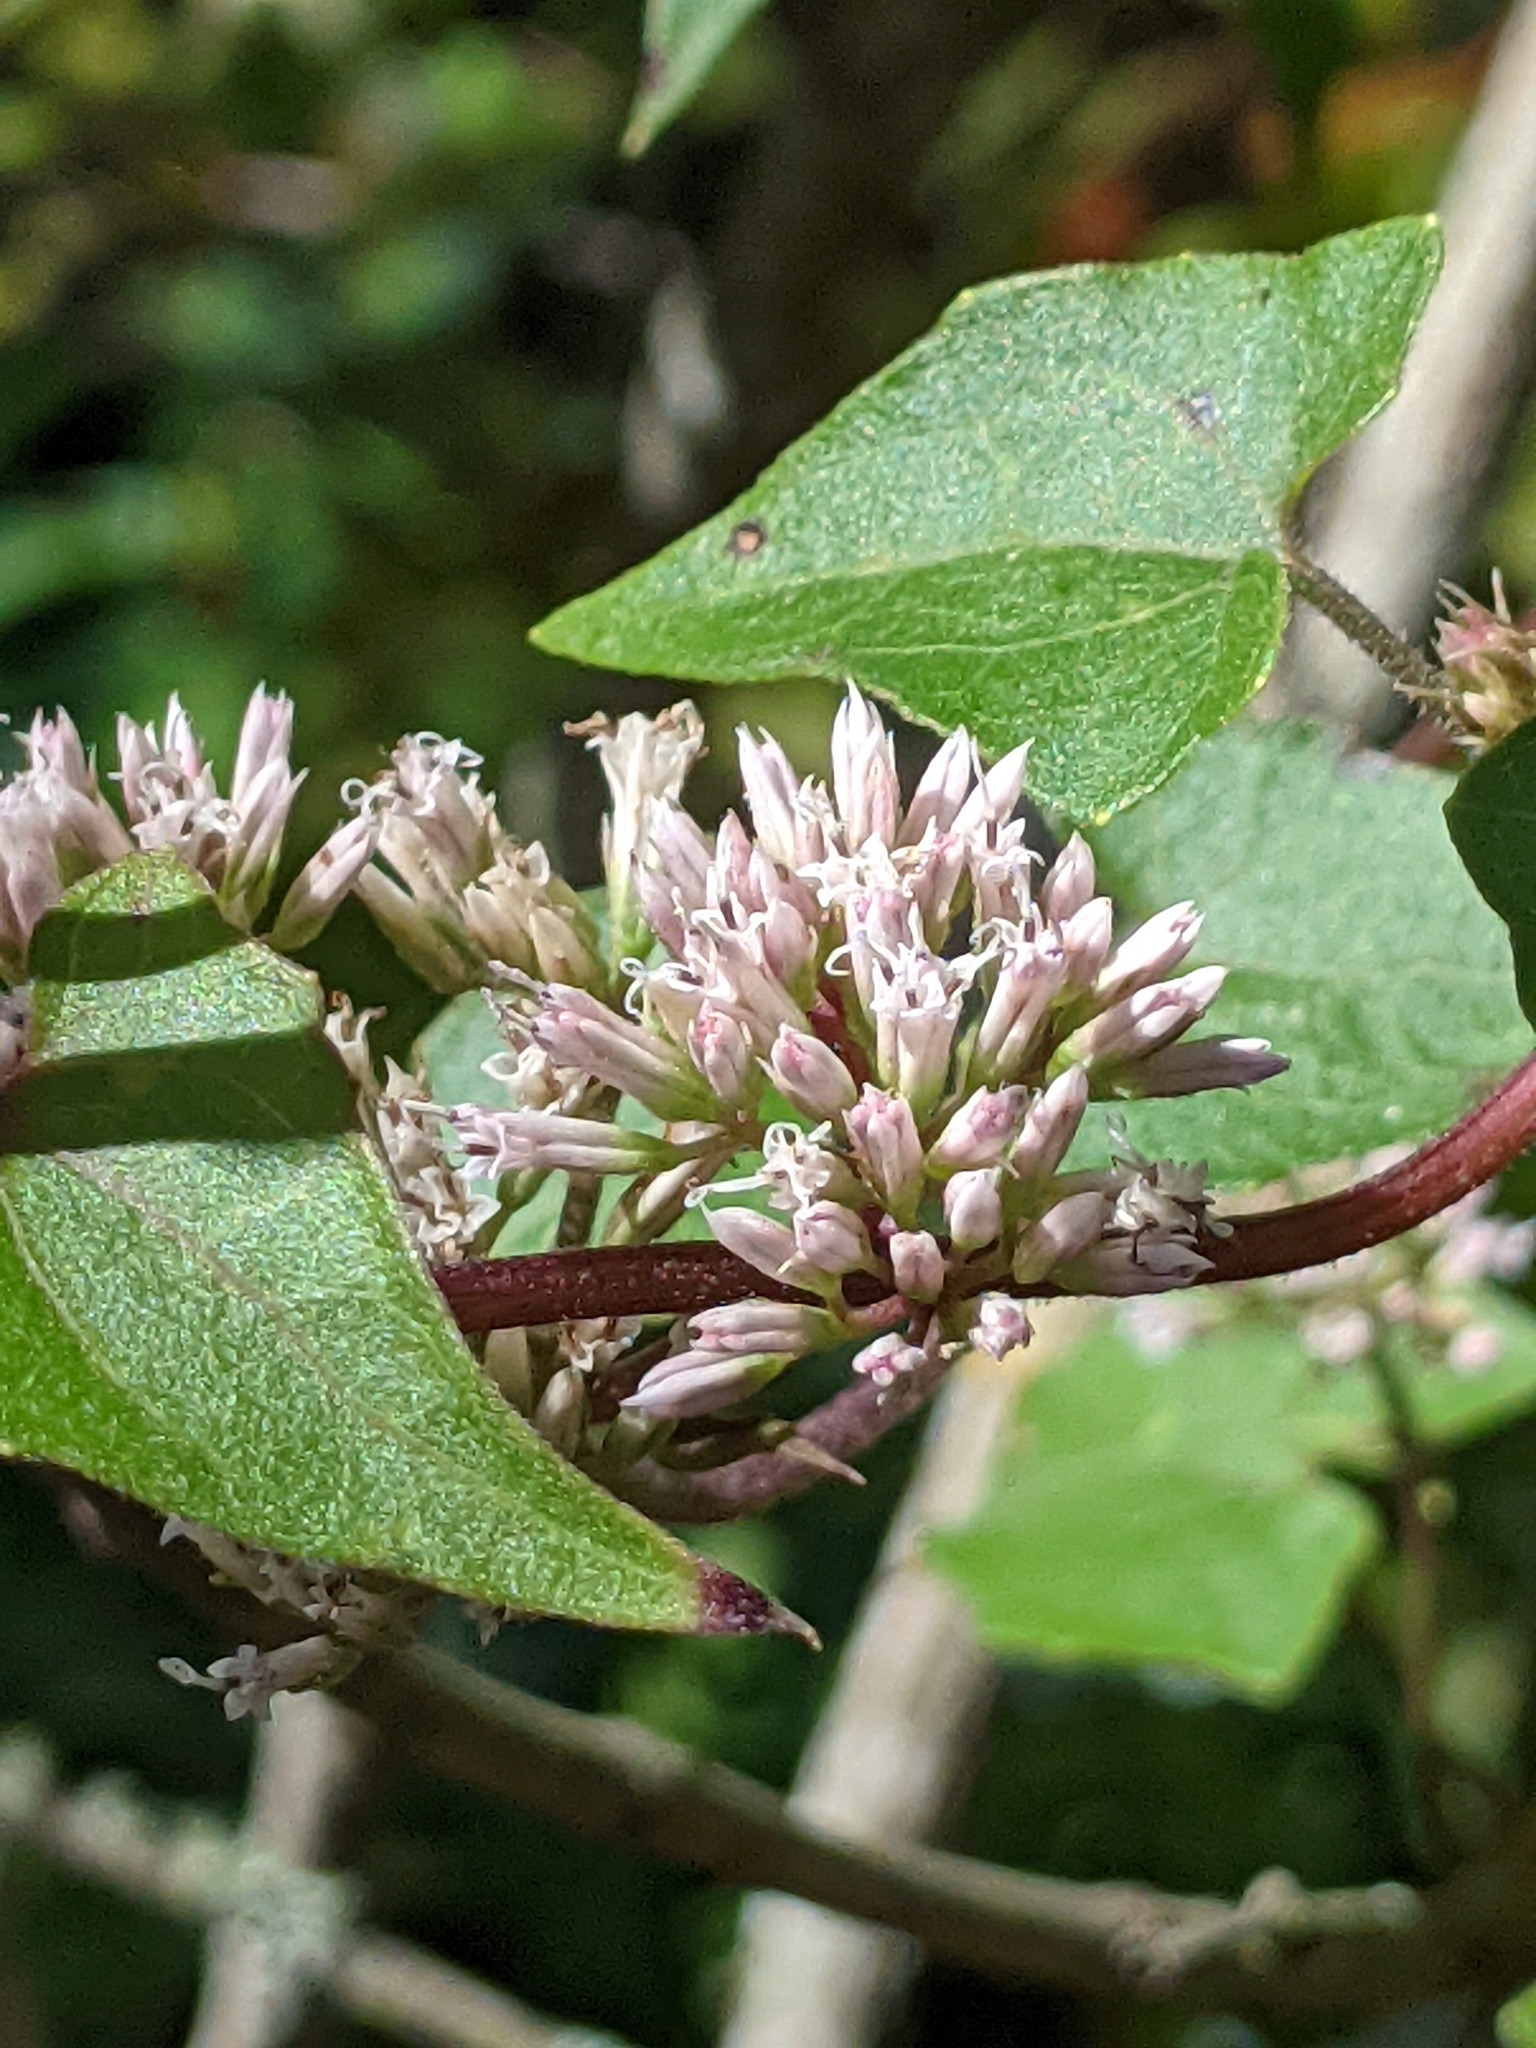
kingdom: Plantae
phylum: Tracheophyta
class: Magnoliopsida
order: Asterales
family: Asteraceae
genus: Mikania
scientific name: Mikania scandens
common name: Climbing hempvine
